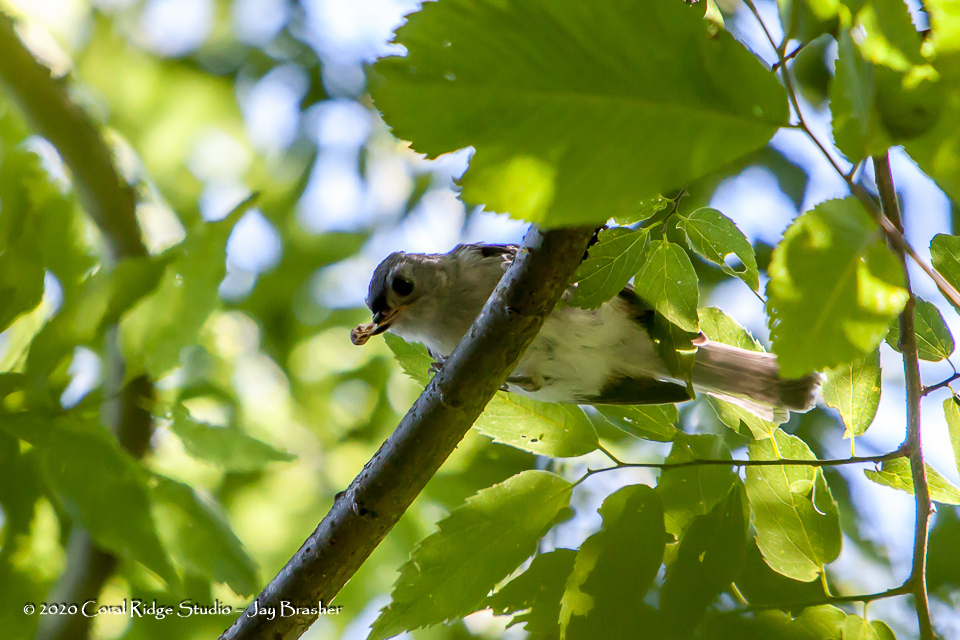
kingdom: Animalia
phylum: Chordata
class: Aves
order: Passeriformes
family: Paridae
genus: Baeolophus
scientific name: Baeolophus bicolor
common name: Tufted titmouse
